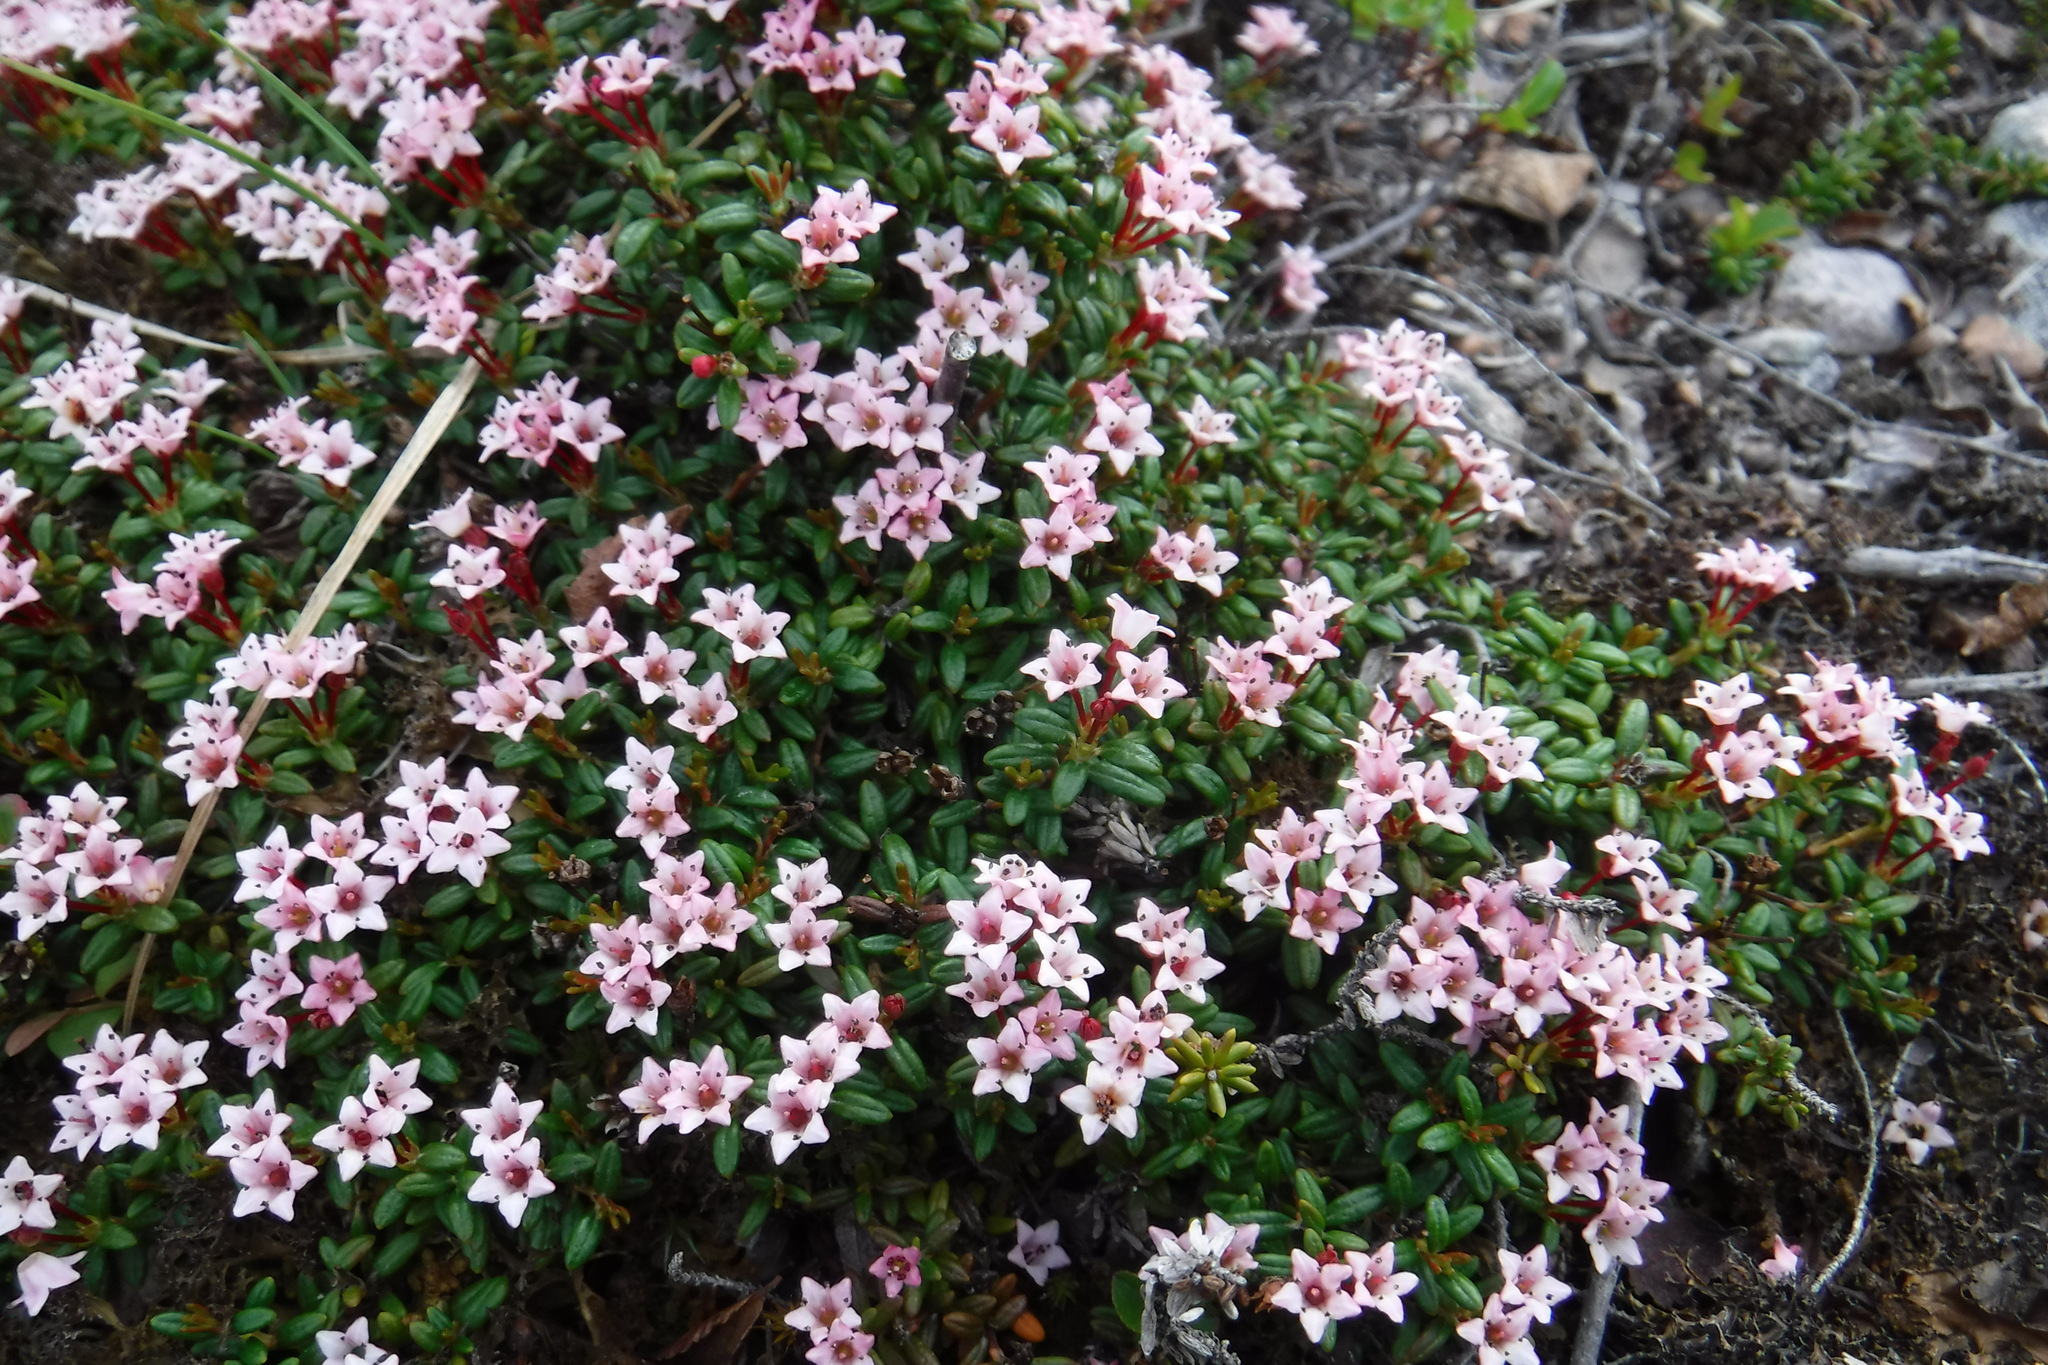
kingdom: Plantae
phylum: Tracheophyta
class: Magnoliopsida
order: Ericales
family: Ericaceae
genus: Kalmia
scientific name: Kalmia procumbens
